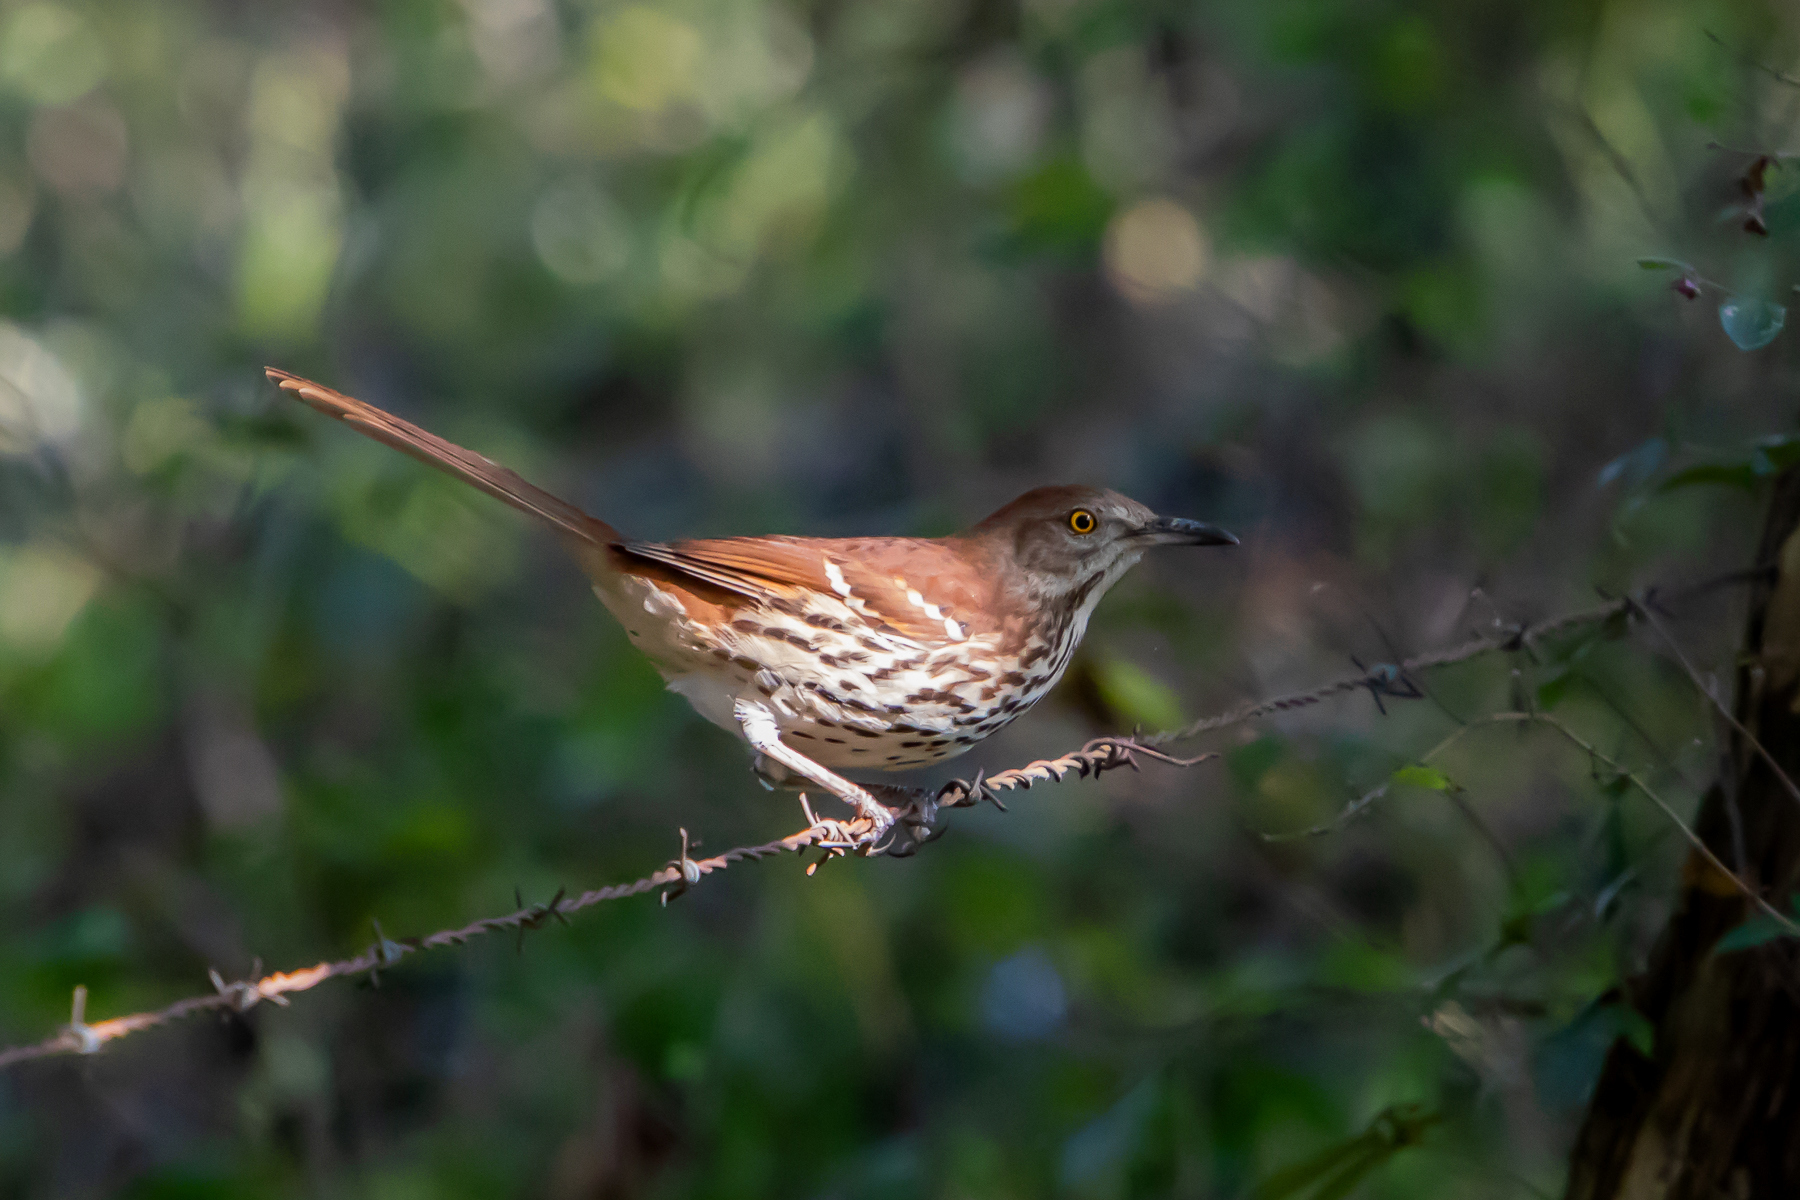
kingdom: Animalia
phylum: Chordata
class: Aves
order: Passeriformes
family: Mimidae
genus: Toxostoma
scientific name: Toxostoma rufum
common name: Brown thrasher
